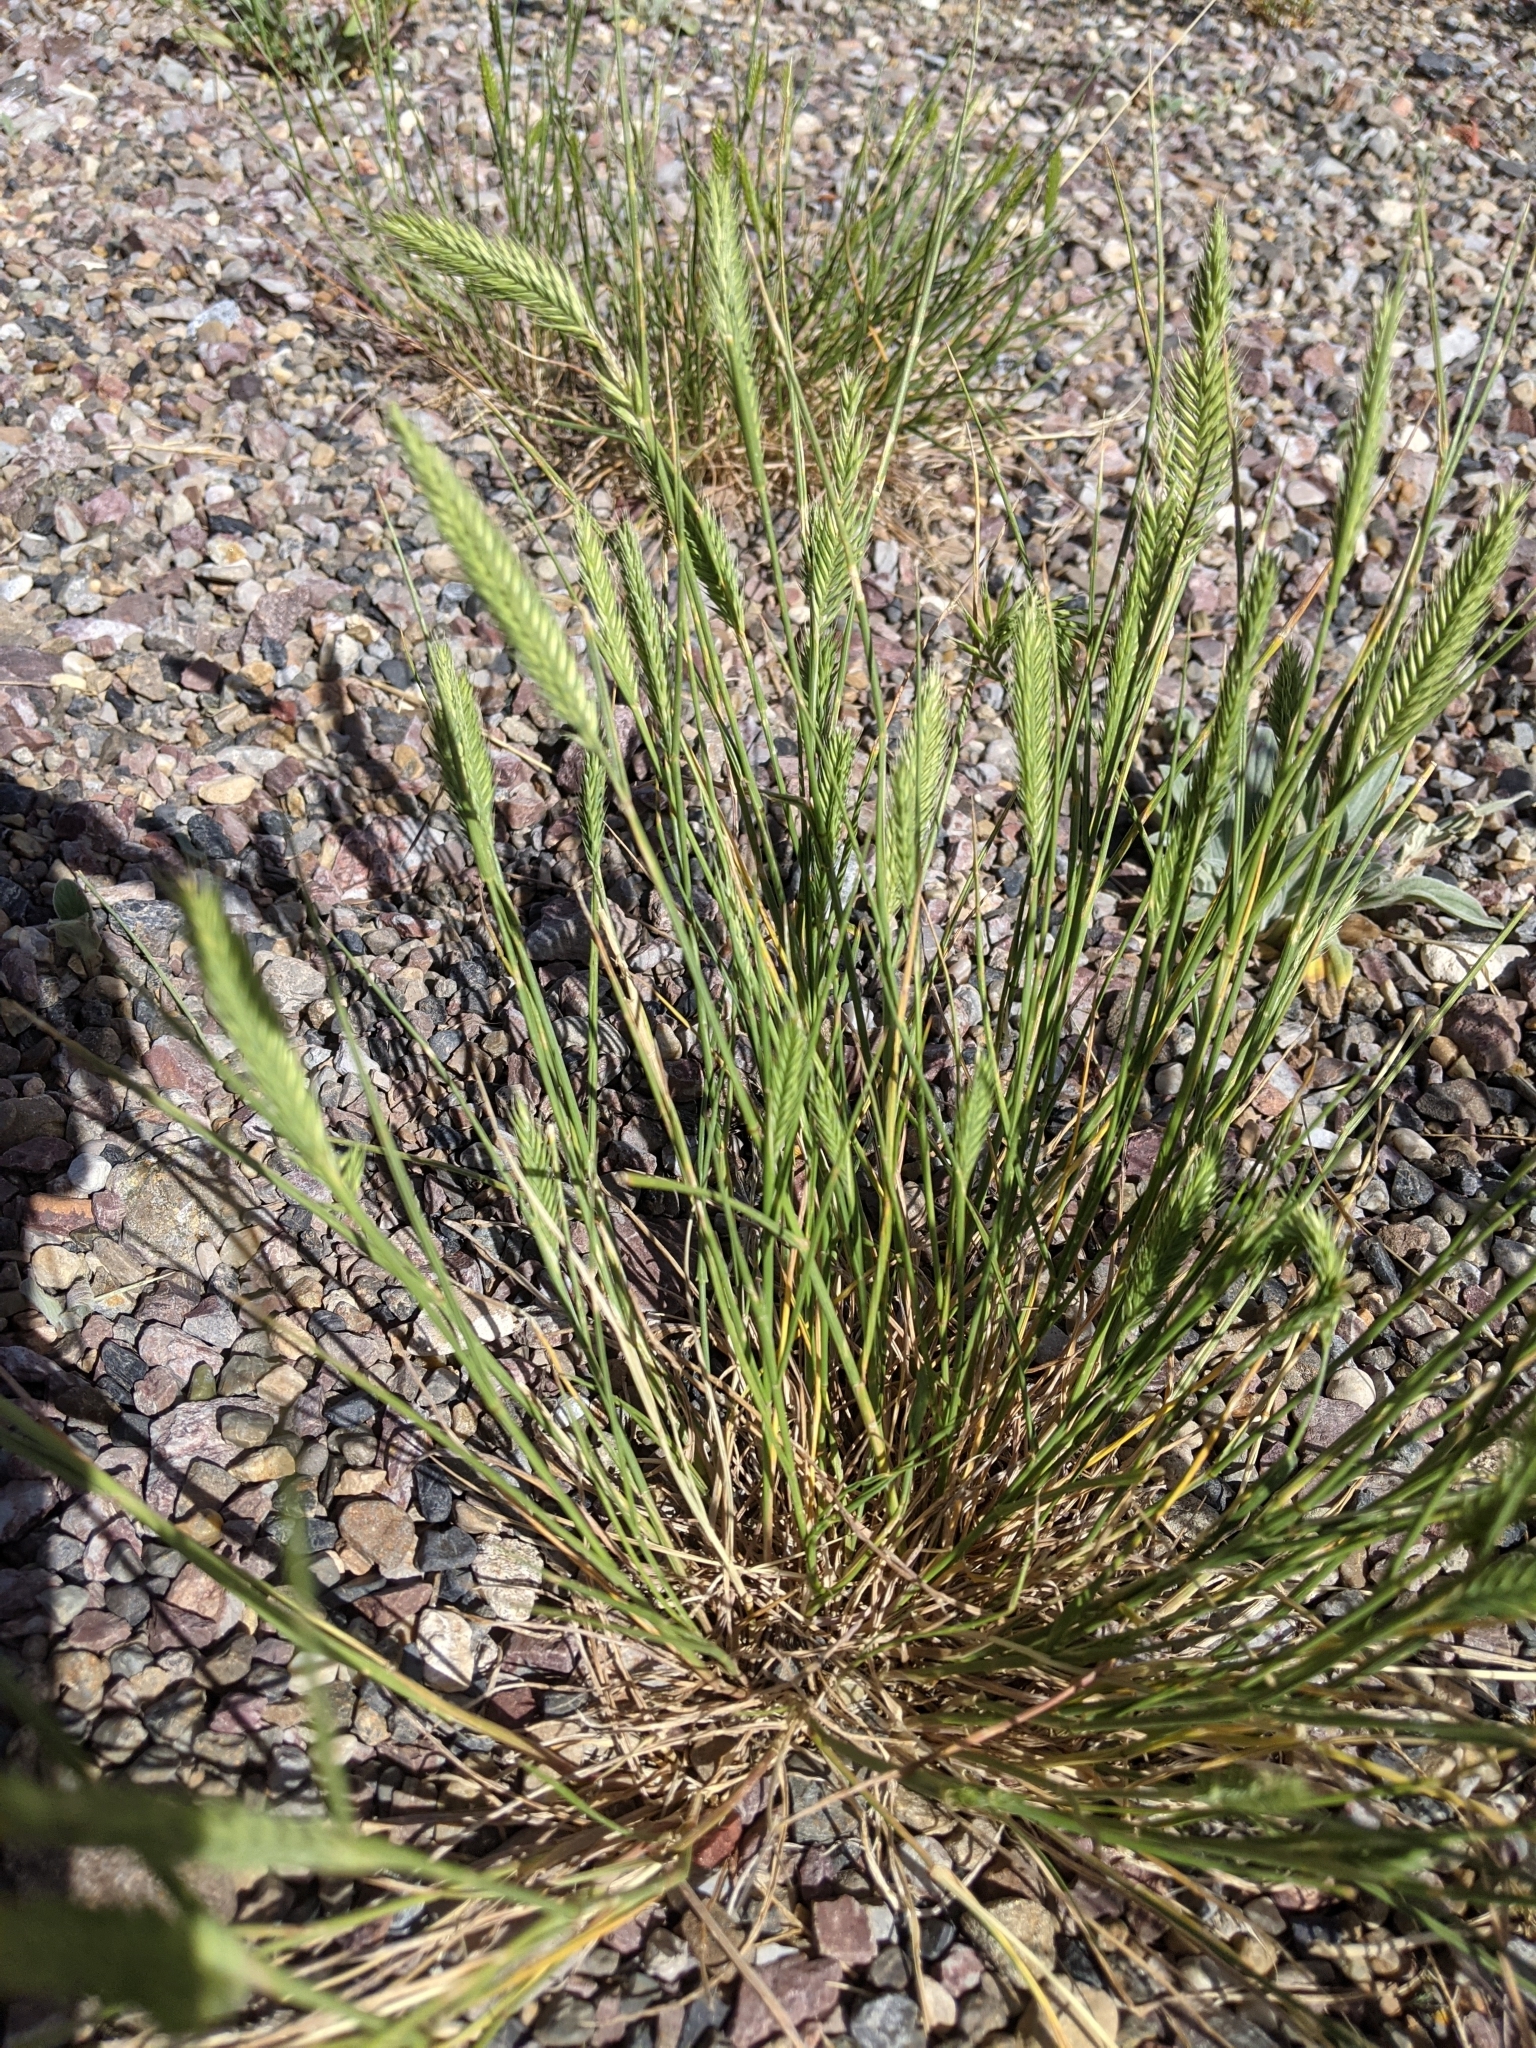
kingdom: Plantae
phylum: Tracheophyta
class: Liliopsida
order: Poales
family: Poaceae
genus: Agropyron
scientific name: Agropyron cristatum
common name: Crested wheatgrass
